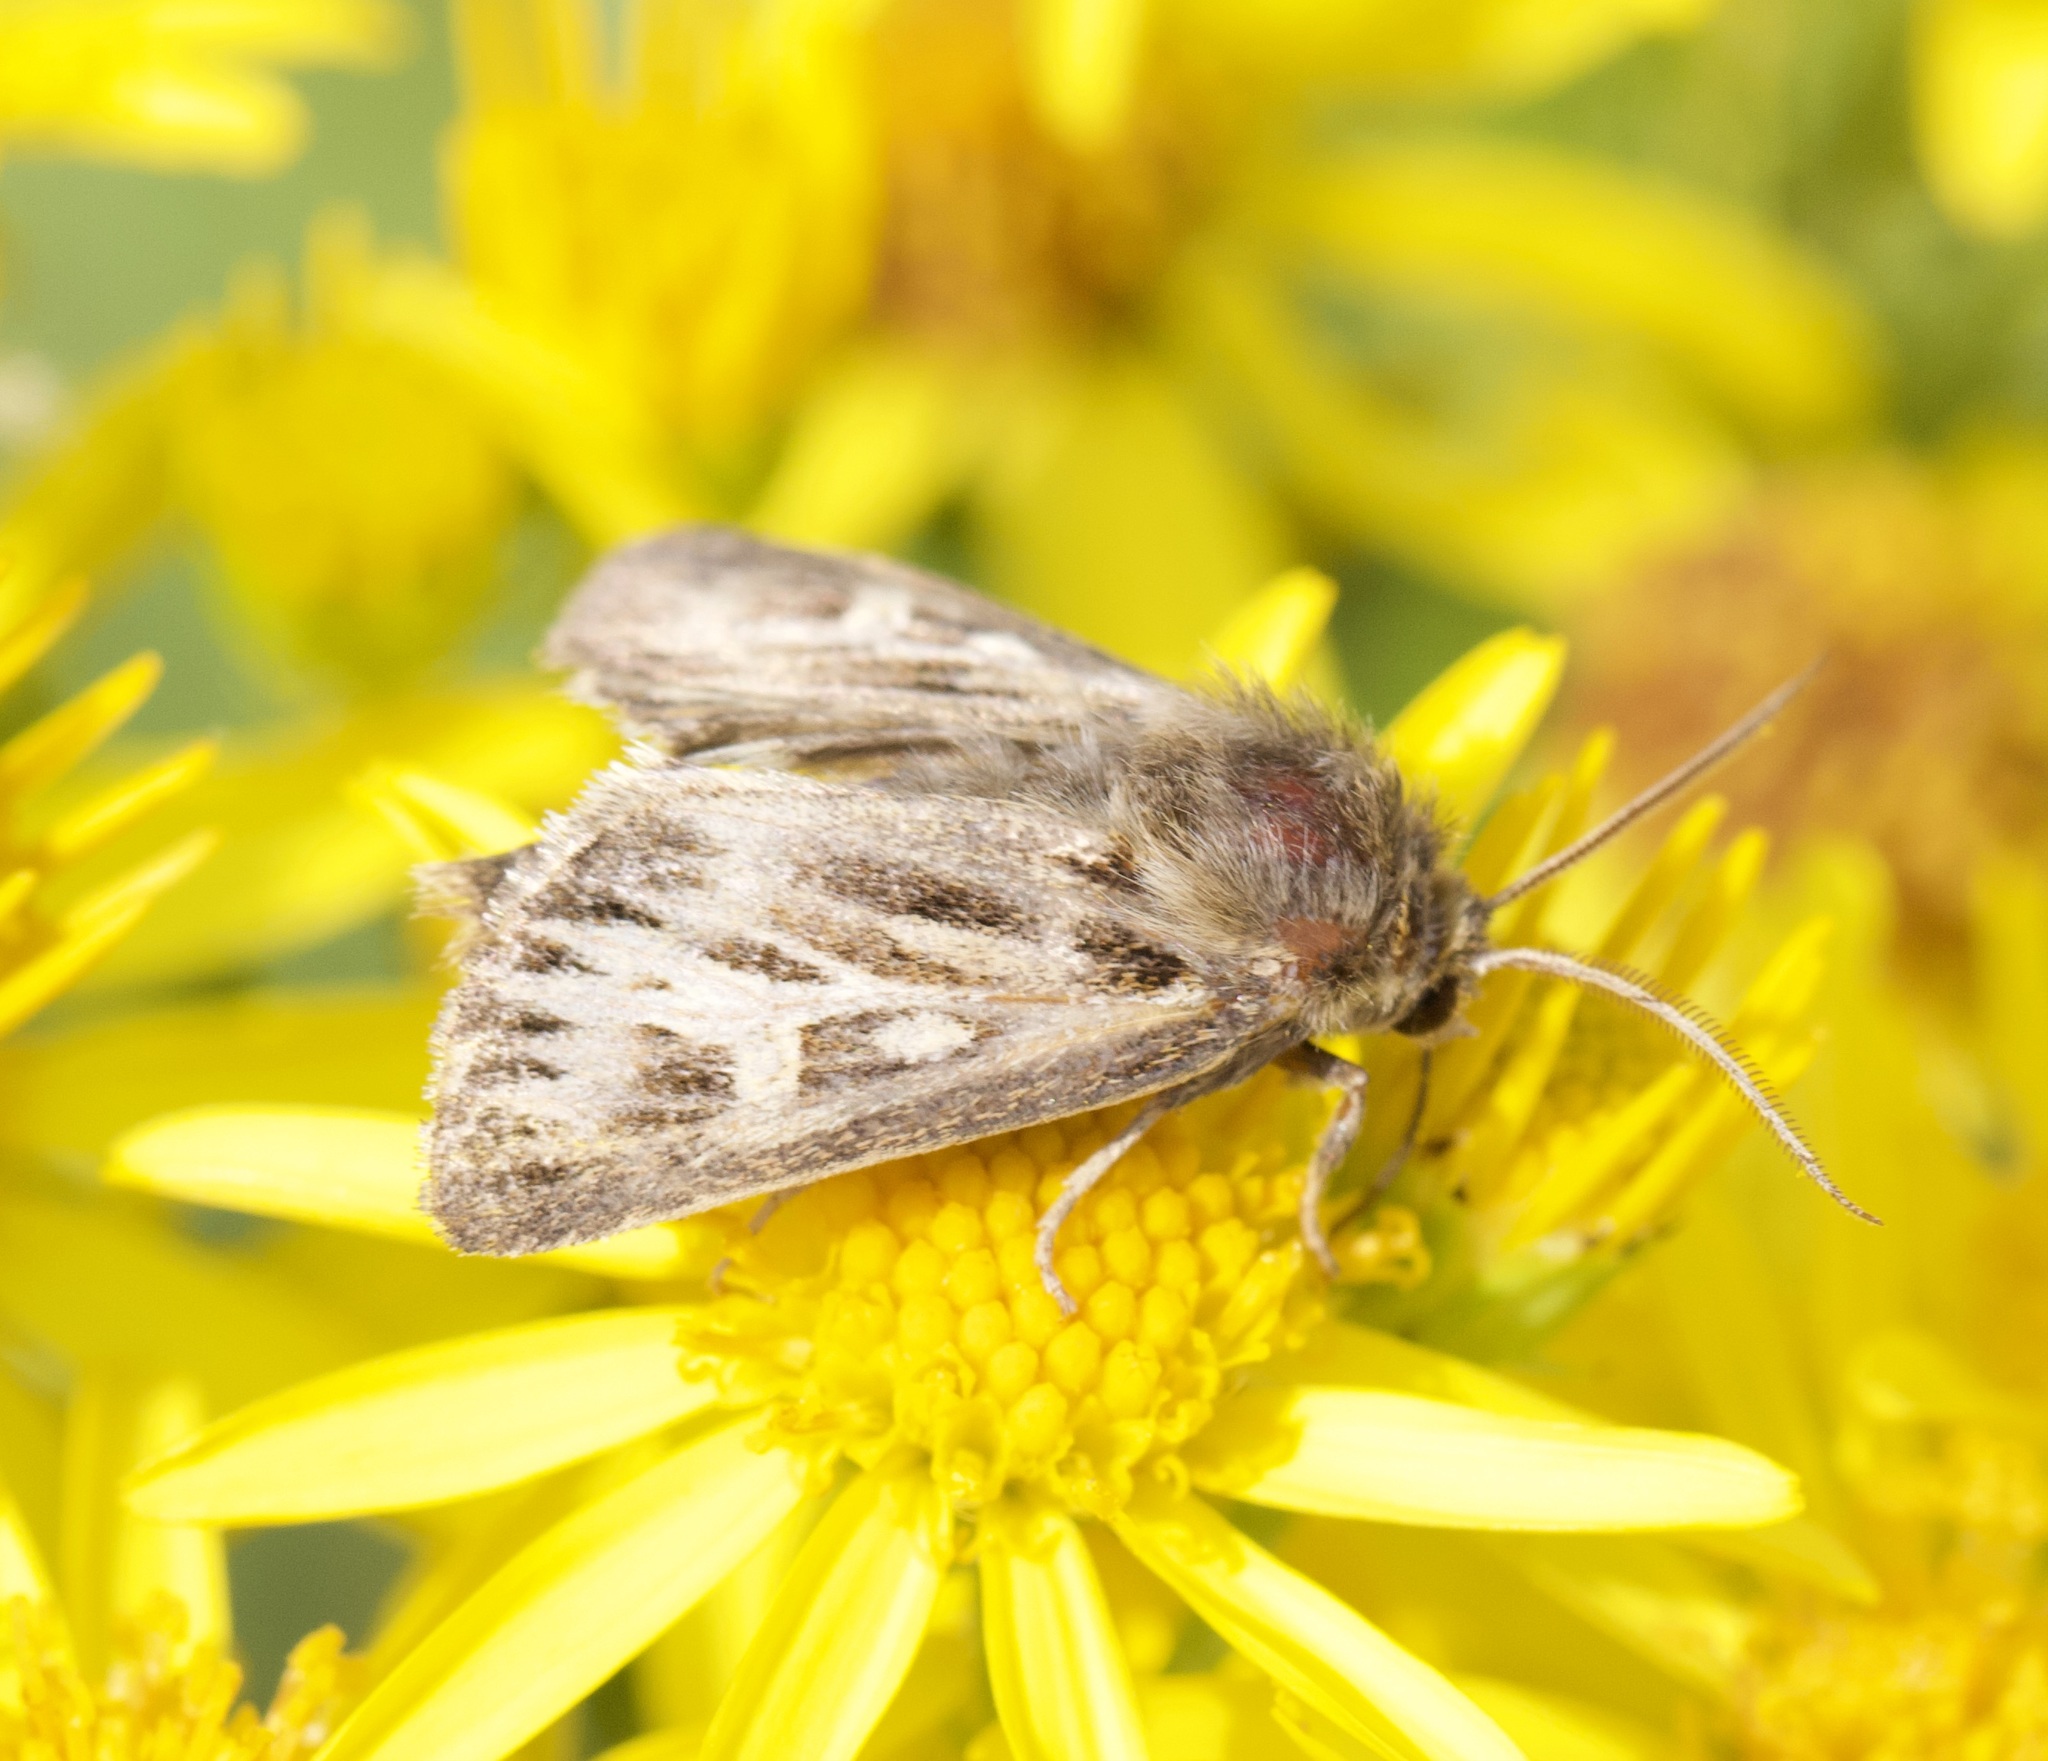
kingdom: Animalia
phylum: Arthropoda
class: Insecta
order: Lepidoptera
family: Noctuidae
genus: Cerapteryx
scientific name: Cerapteryx graminis
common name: Antler moth
